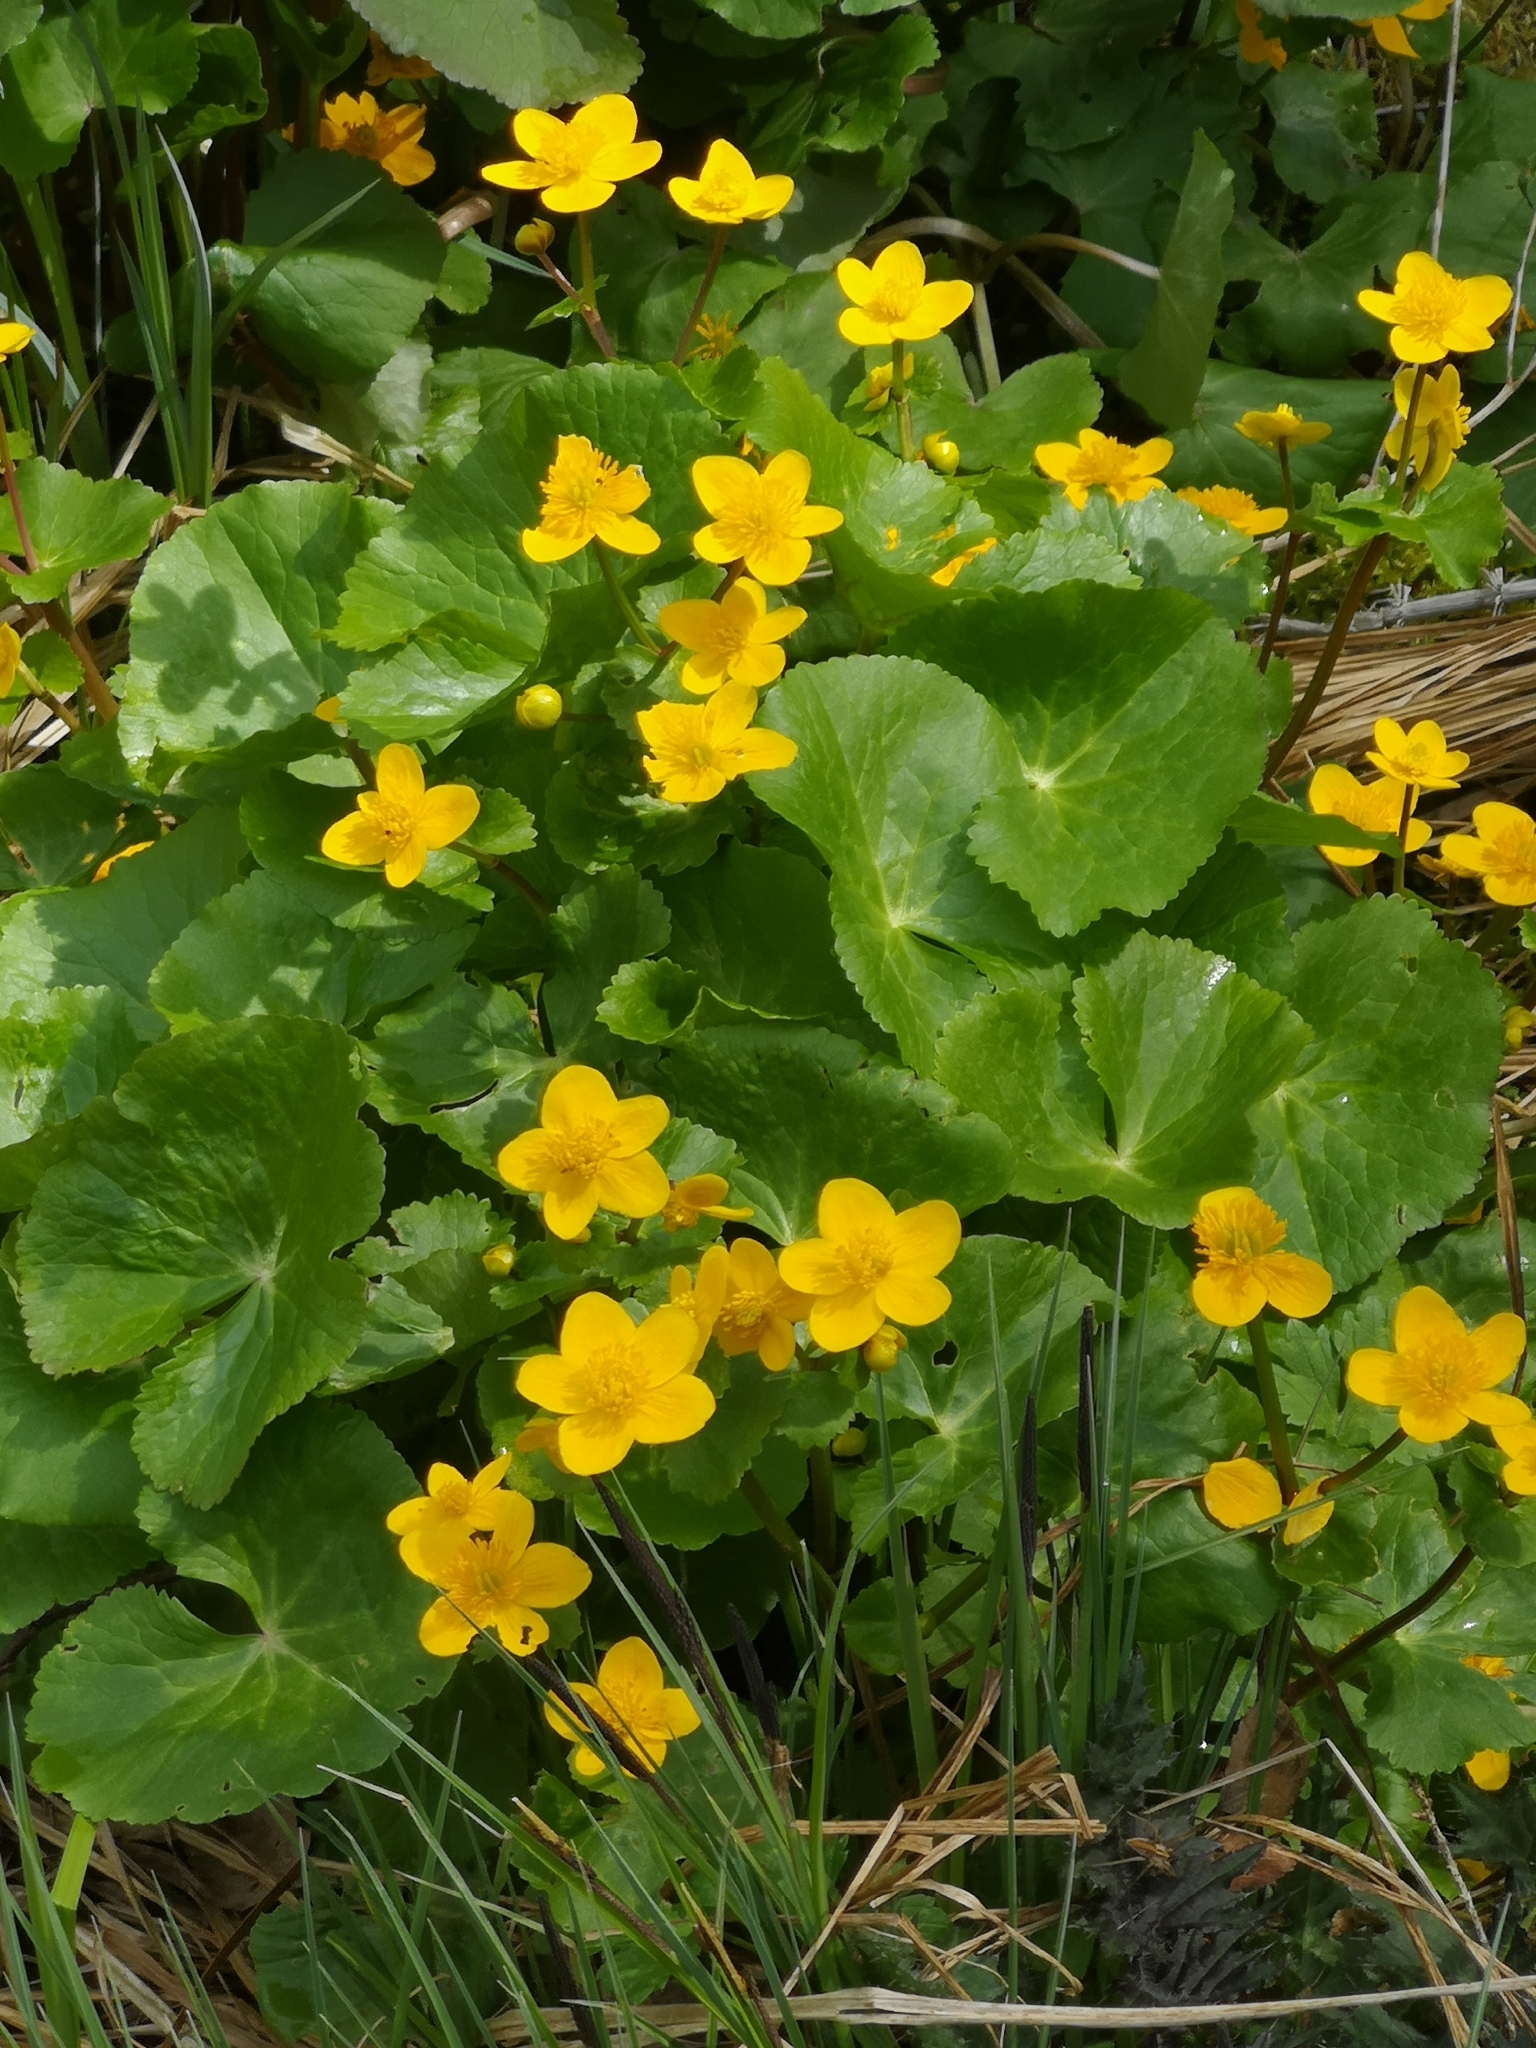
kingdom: Plantae
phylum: Tracheophyta
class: Magnoliopsida
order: Ranunculales
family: Ranunculaceae
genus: Caltha
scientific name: Caltha palustris
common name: Marsh marigold
